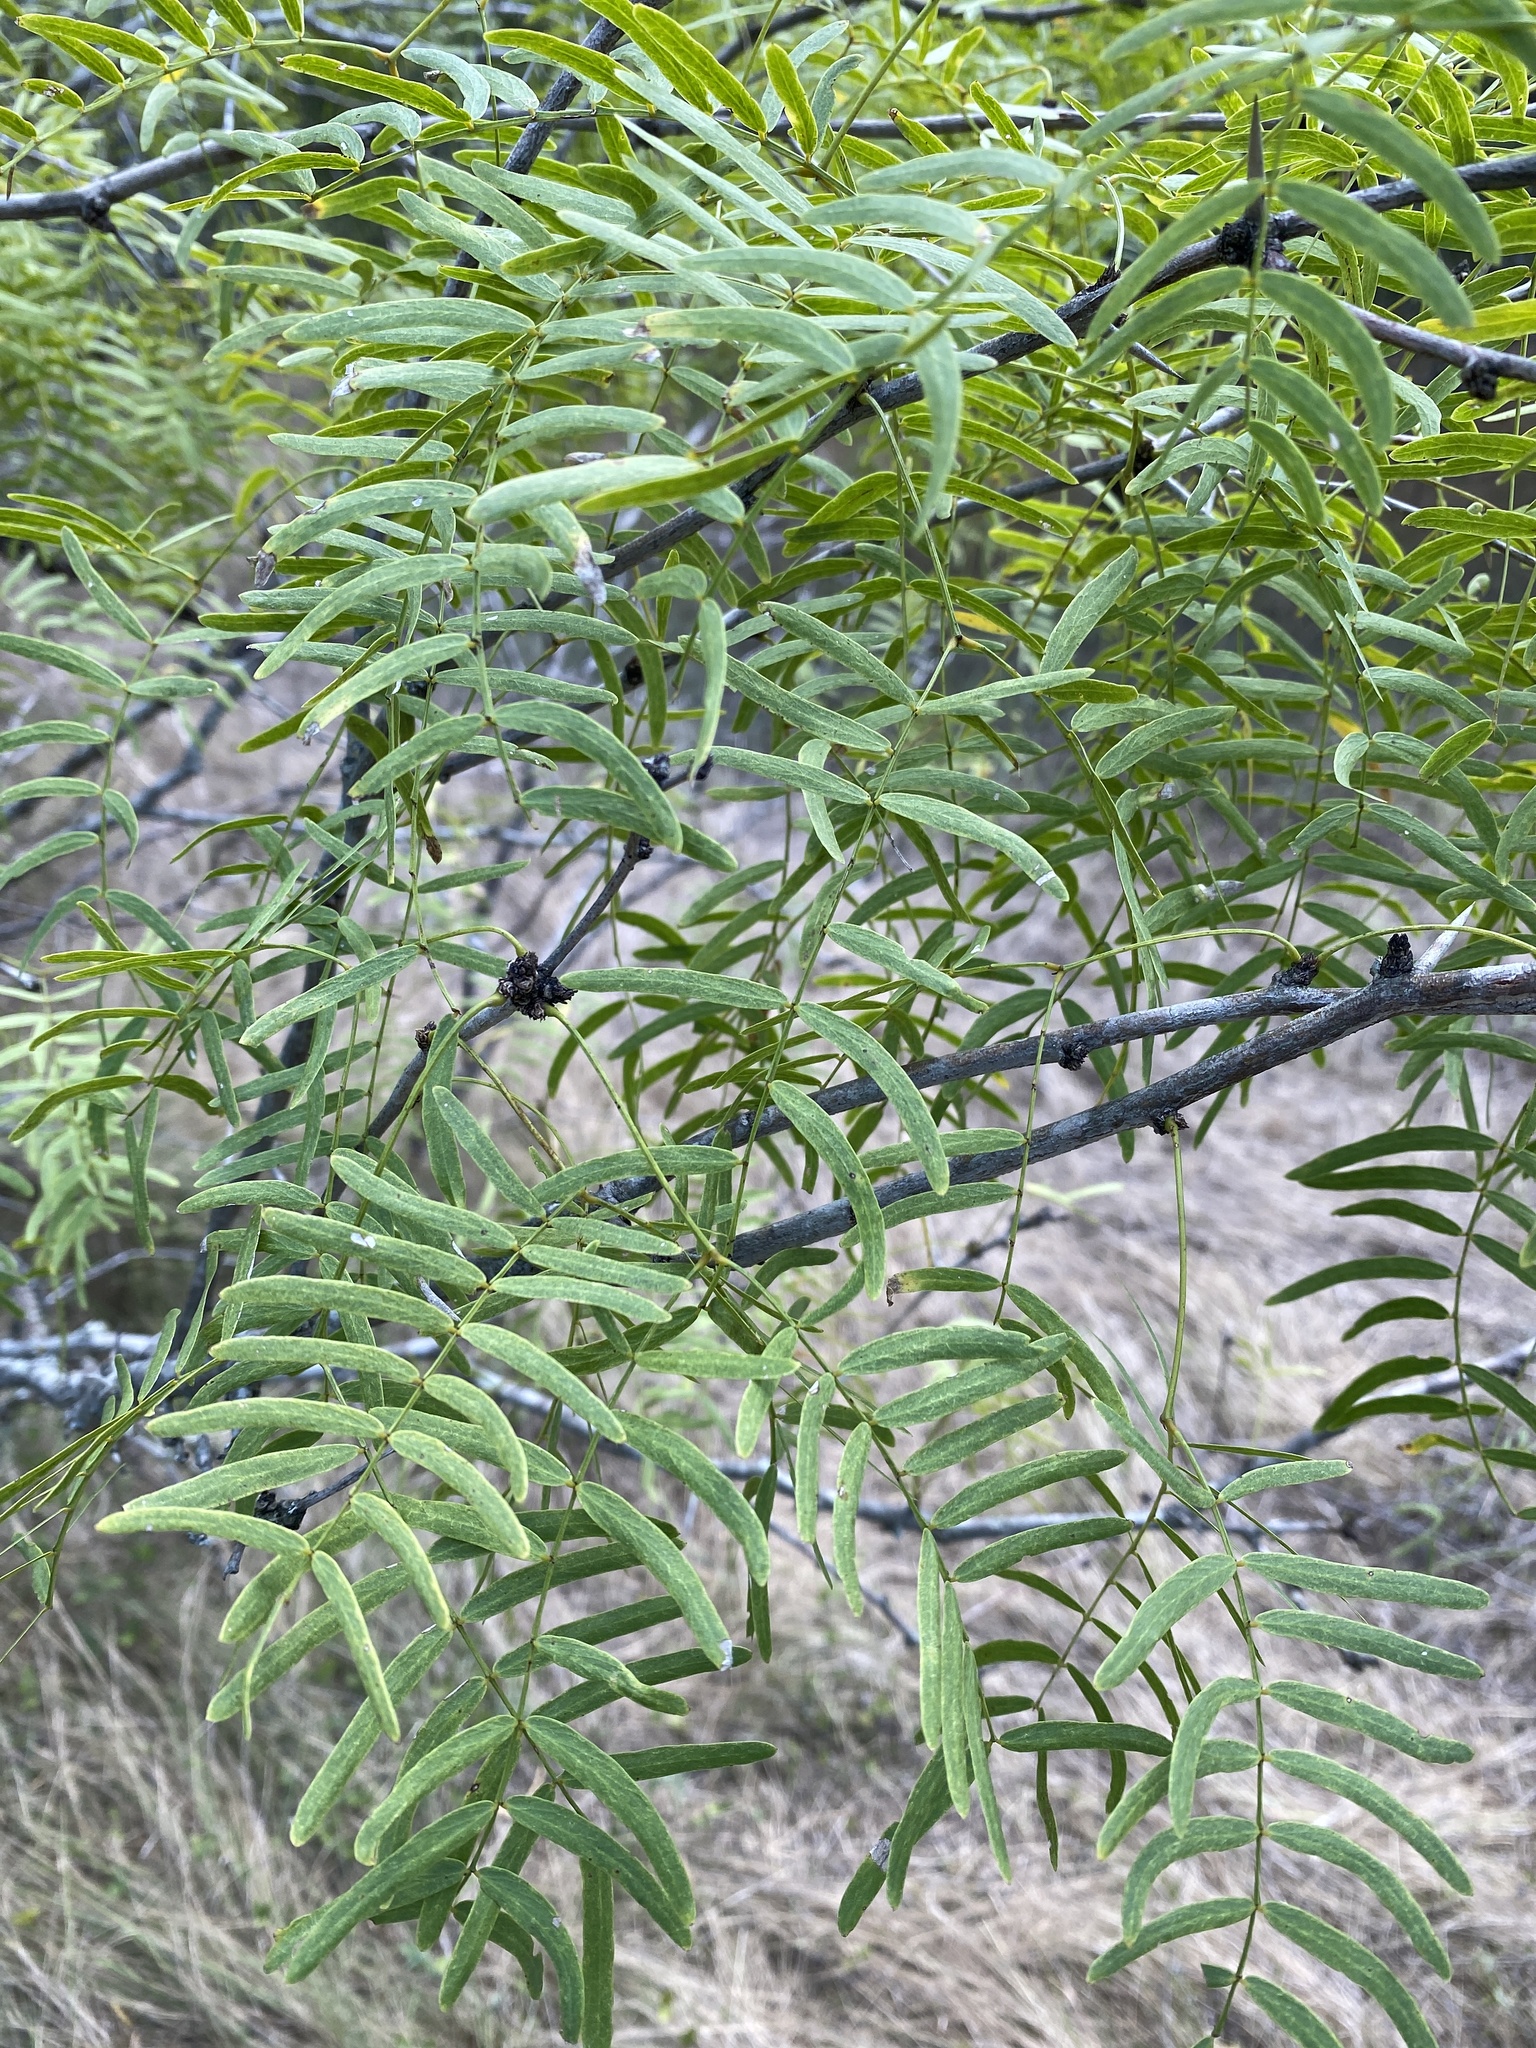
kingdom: Plantae
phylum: Tracheophyta
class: Magnoliopsida
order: Fabales
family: Fabaceae
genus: Prosopis
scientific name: Prosopis glandulosa
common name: Honey mesquite
